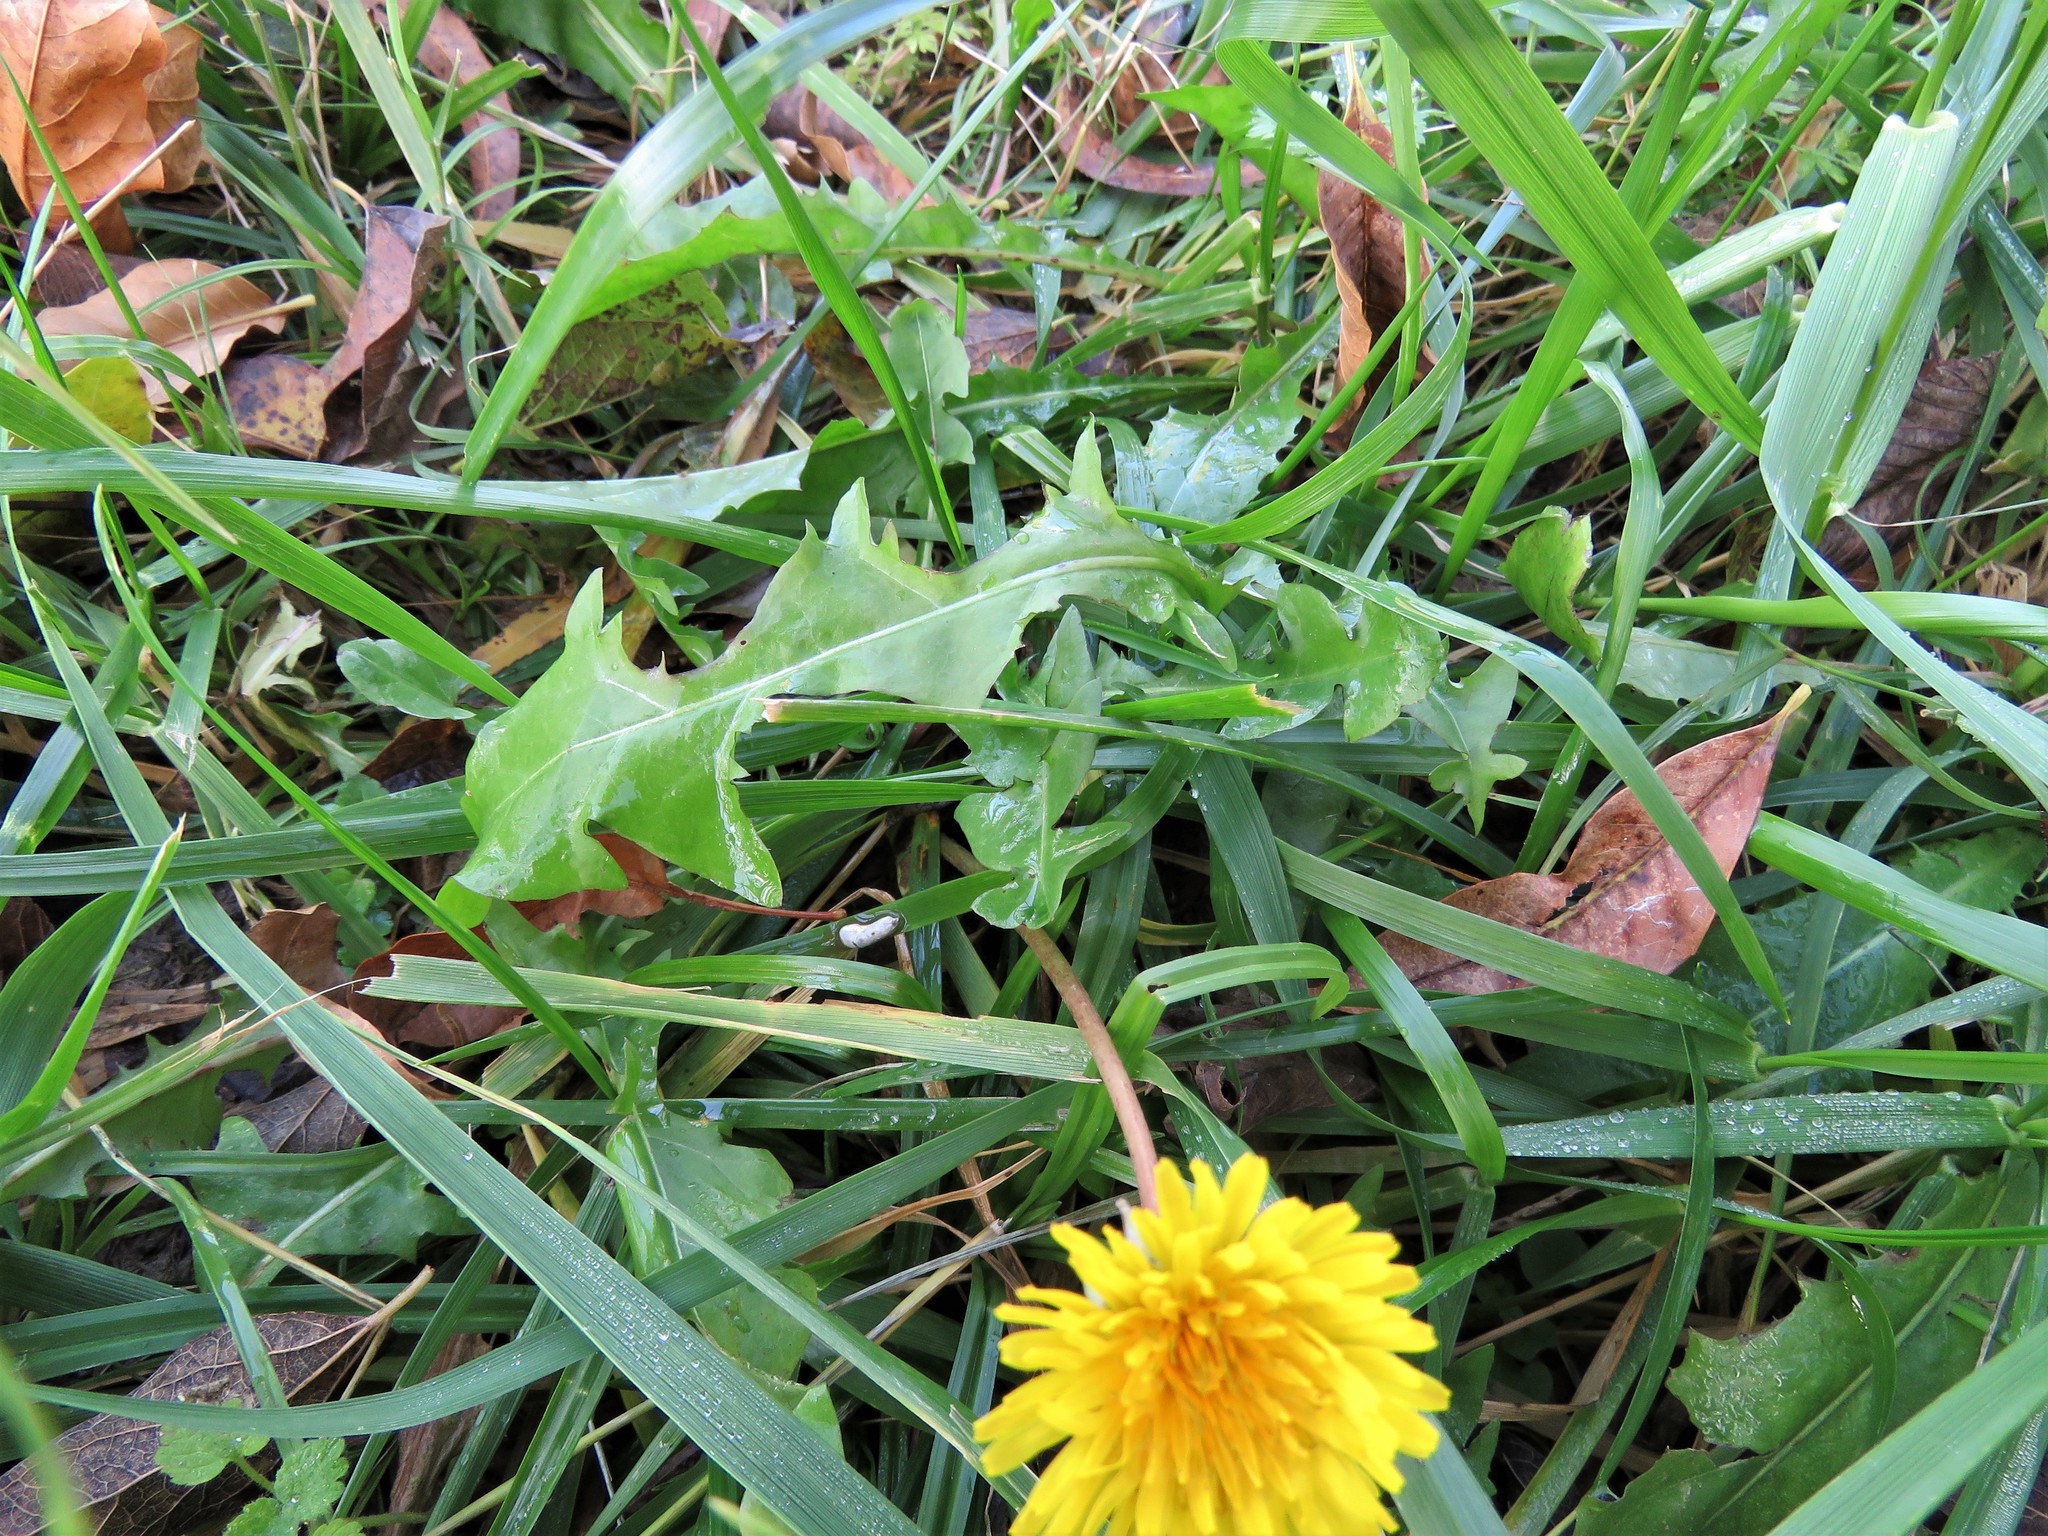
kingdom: Plantae
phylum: Tracheophyta
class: Magnoliopsida
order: Asterales
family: Asteraceae
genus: Taraxacum
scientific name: Taraxacum officinale
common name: Common dandelion
